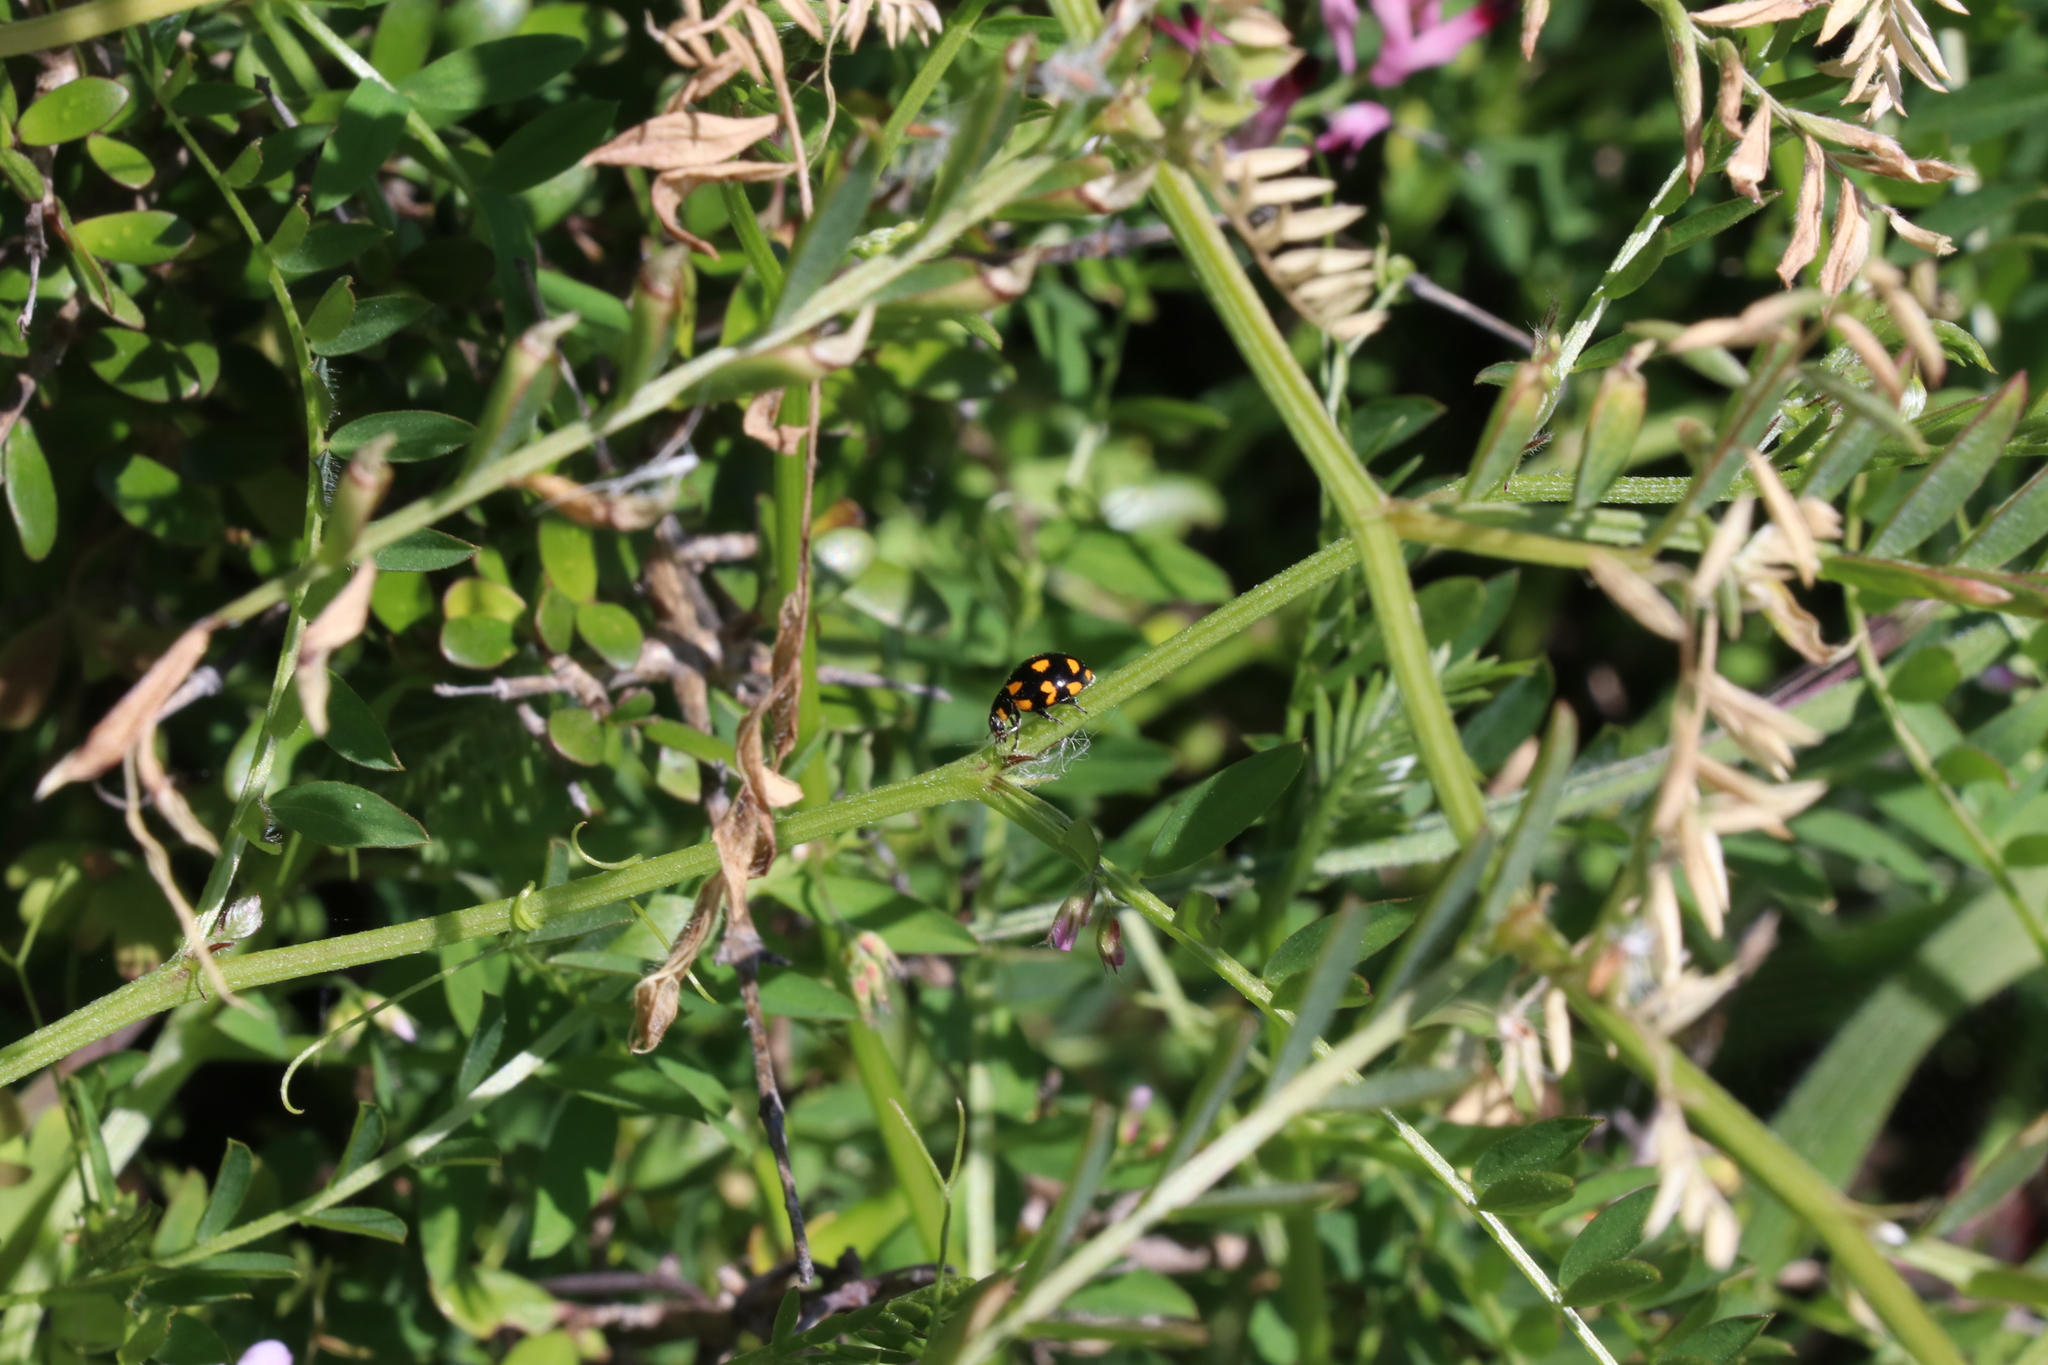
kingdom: Animalia
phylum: Arthropoda
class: Insecta
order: Coleoptera
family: Coccinellidae
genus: Coccinella
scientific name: Coccinella leonina
